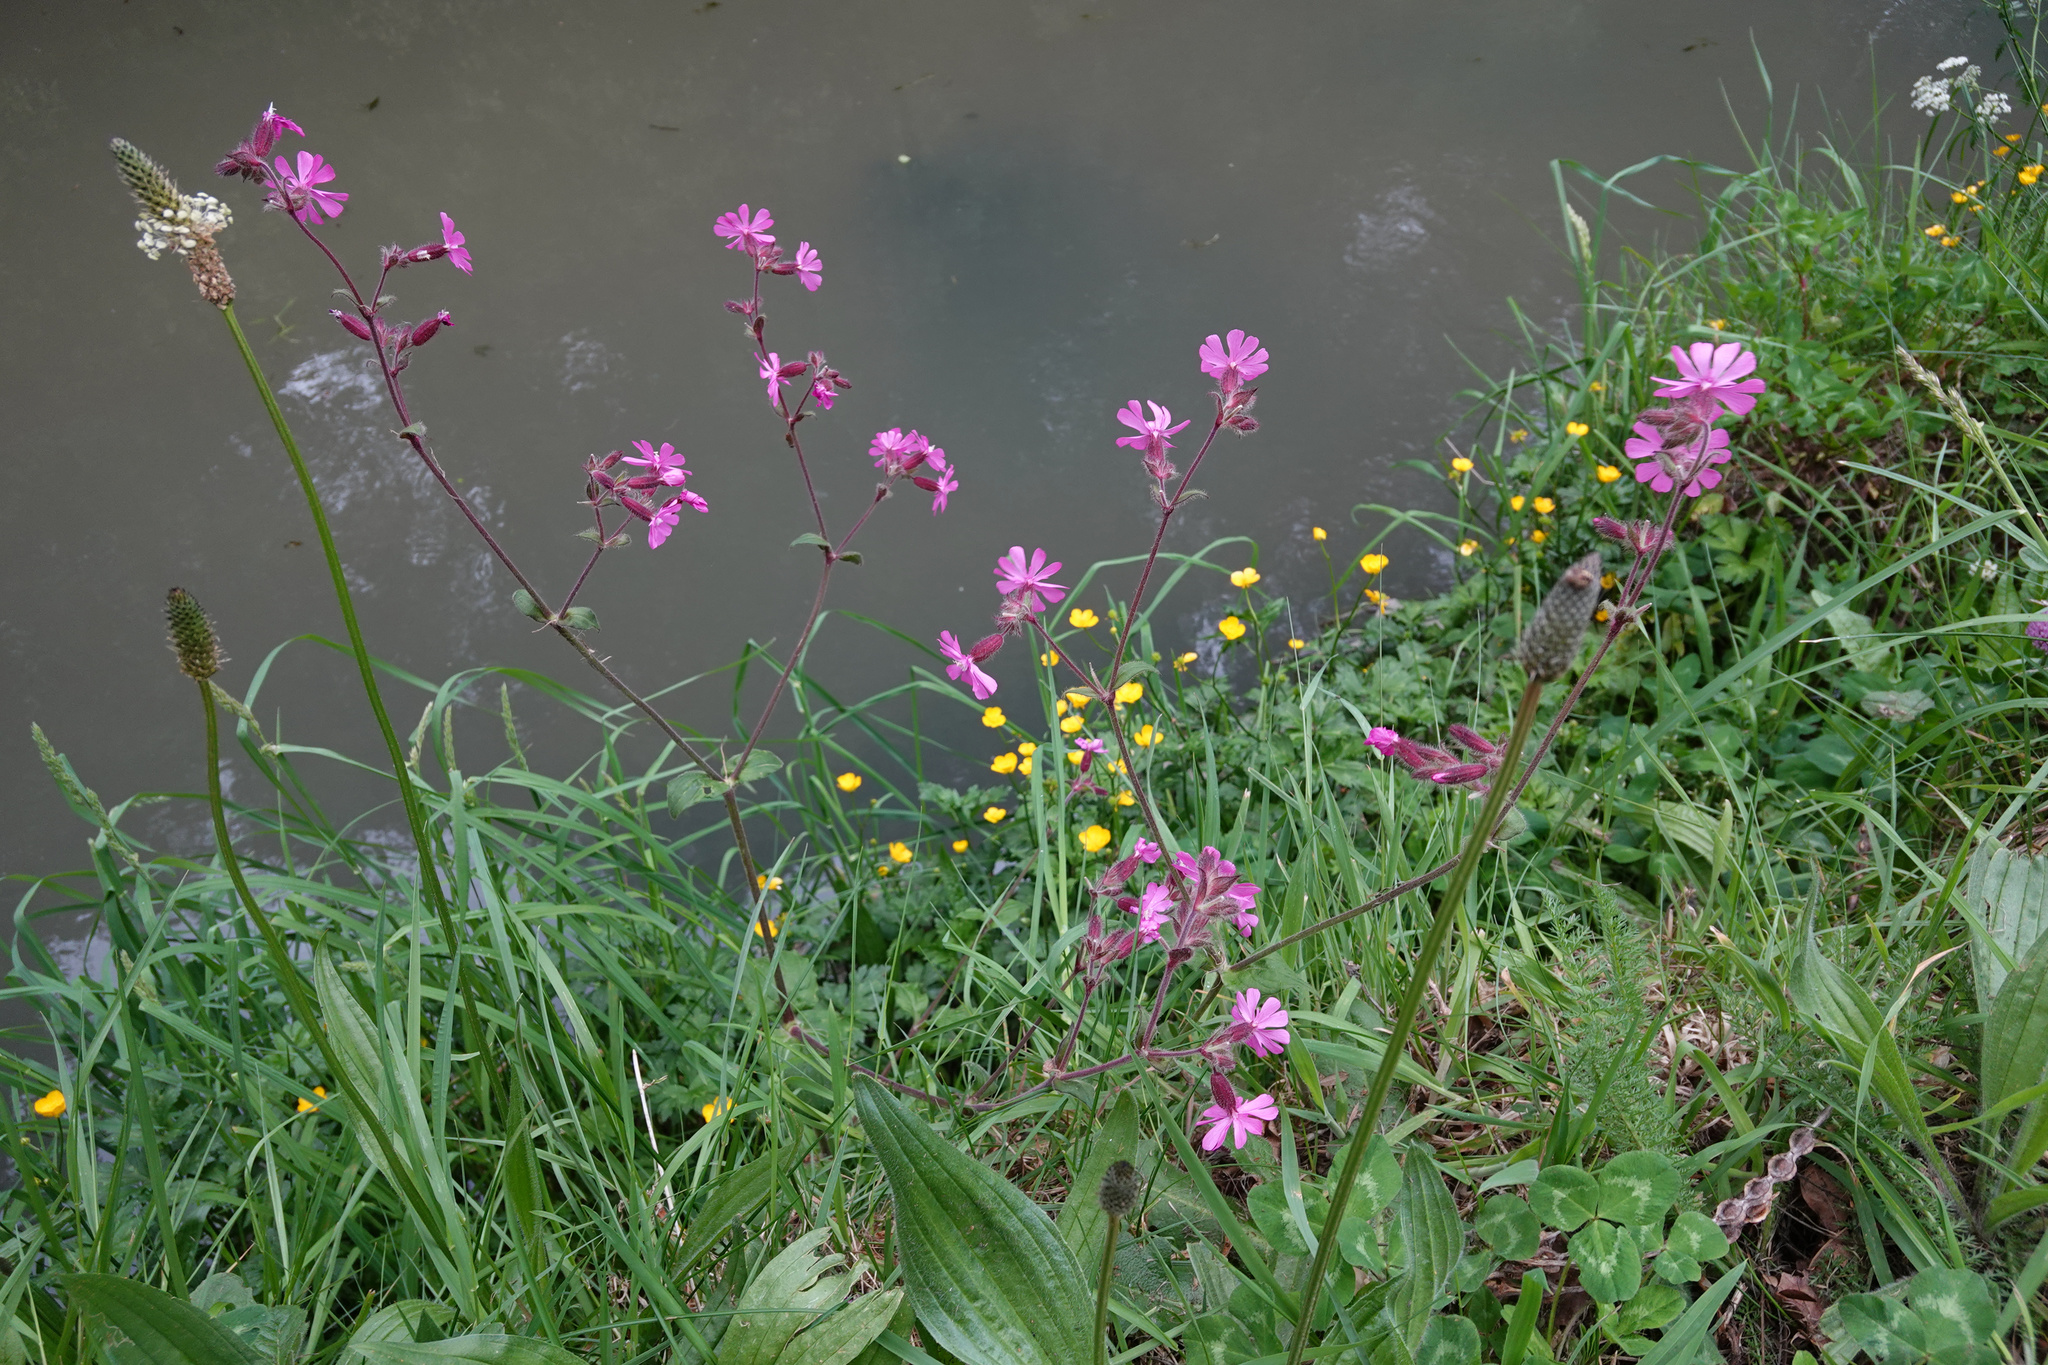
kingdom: Plantae
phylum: Tracheophyta
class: Magnoliopsida
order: Caryophyllales
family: Caryophyllaceae
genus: Silene
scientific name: Silene dioica
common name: Red campion
